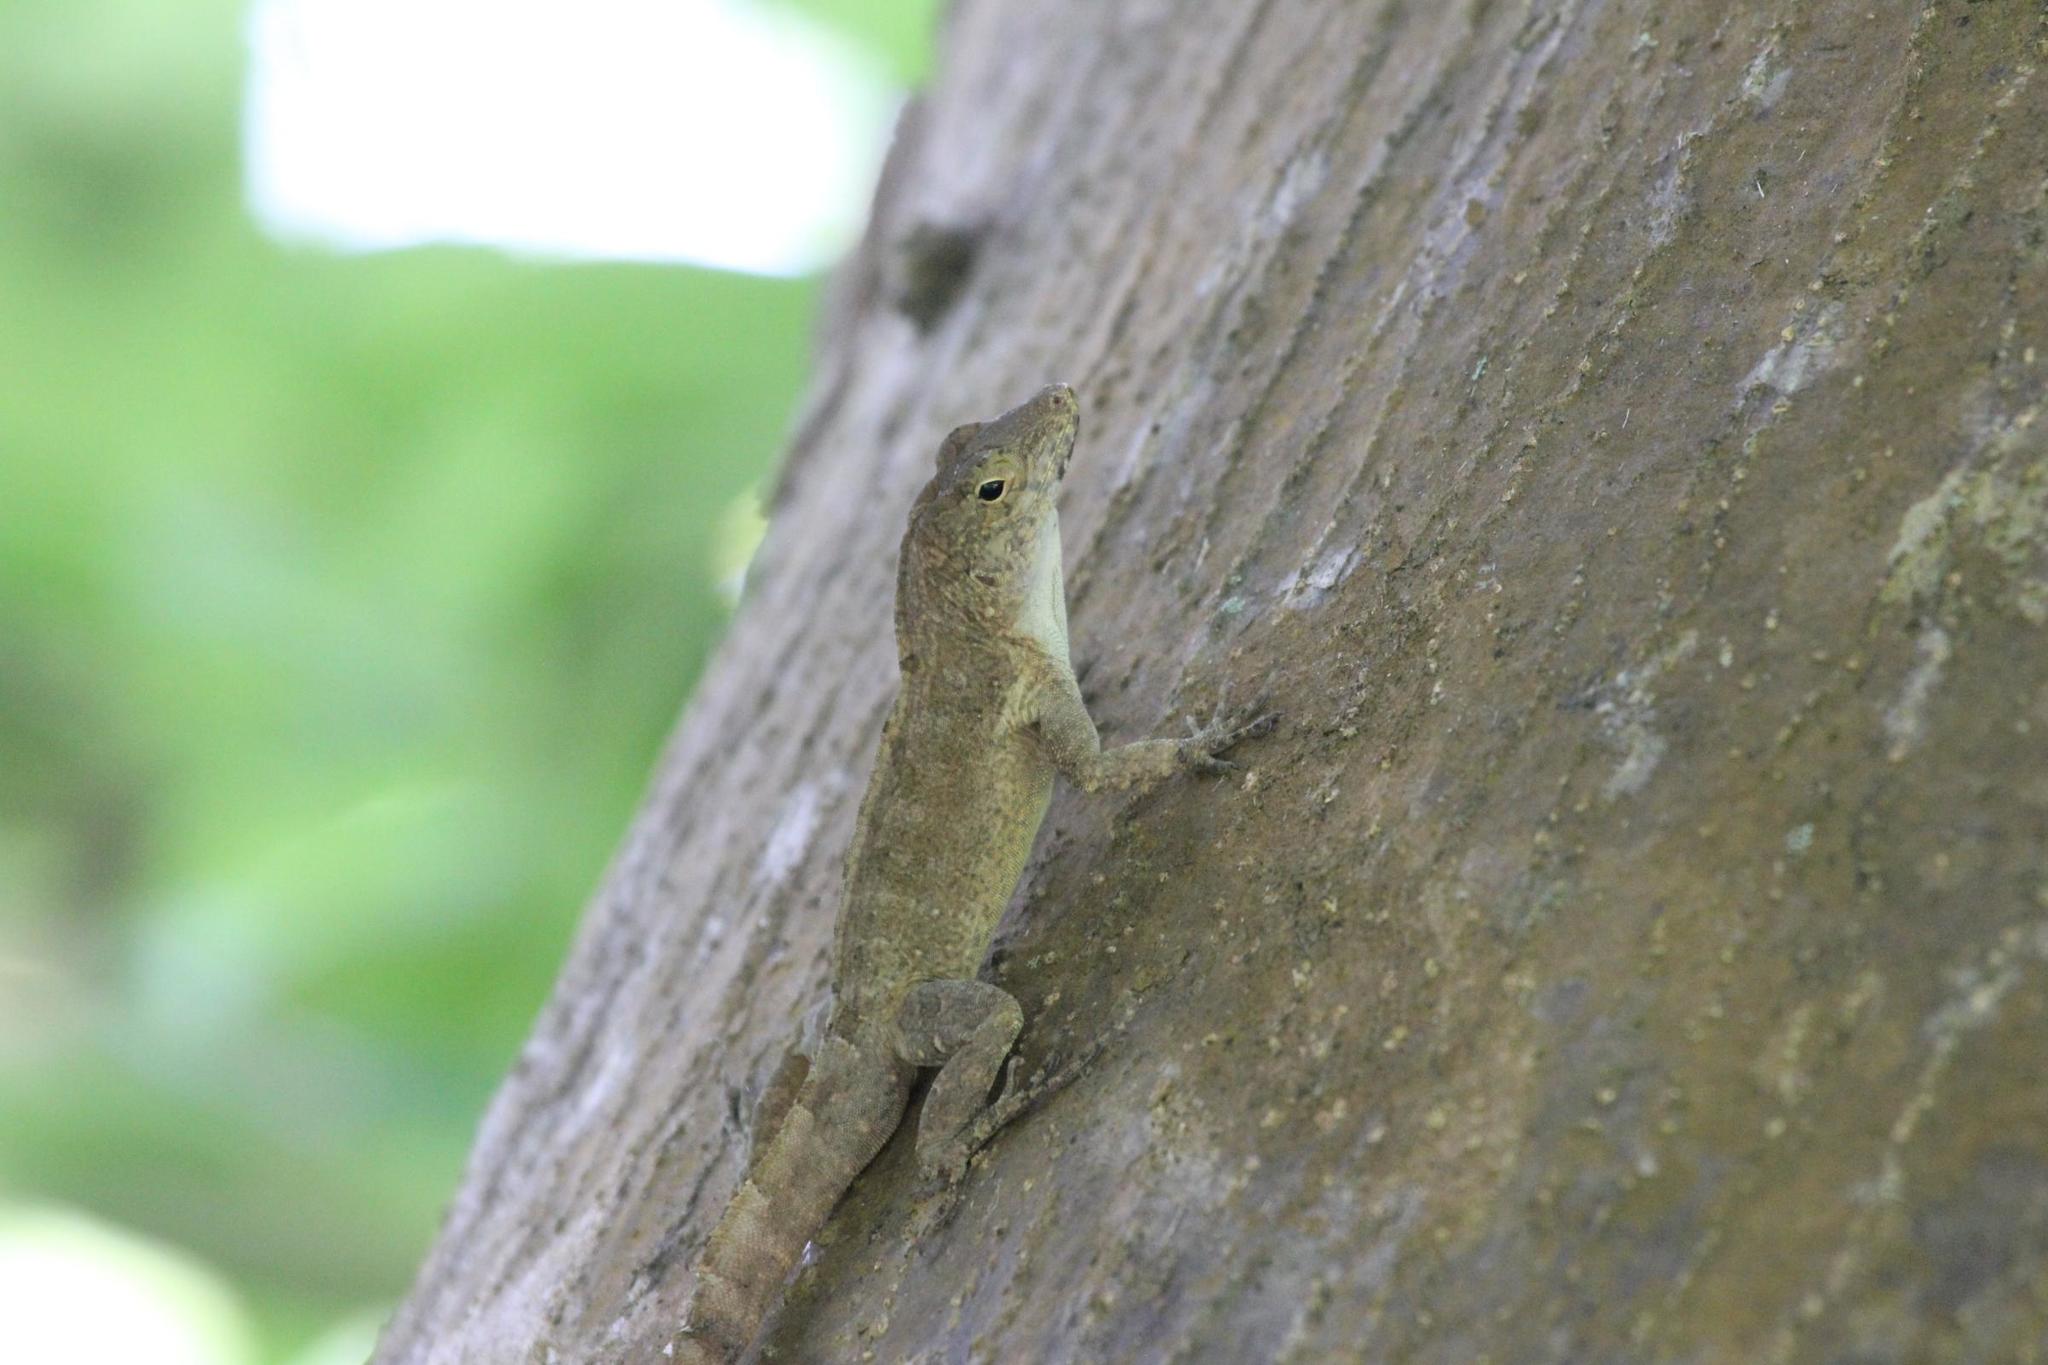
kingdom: Animalia
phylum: Chordata
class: Squamata
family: Dactyloidae
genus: Anolis
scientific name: Anolis cristatellus
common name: Crested anole
